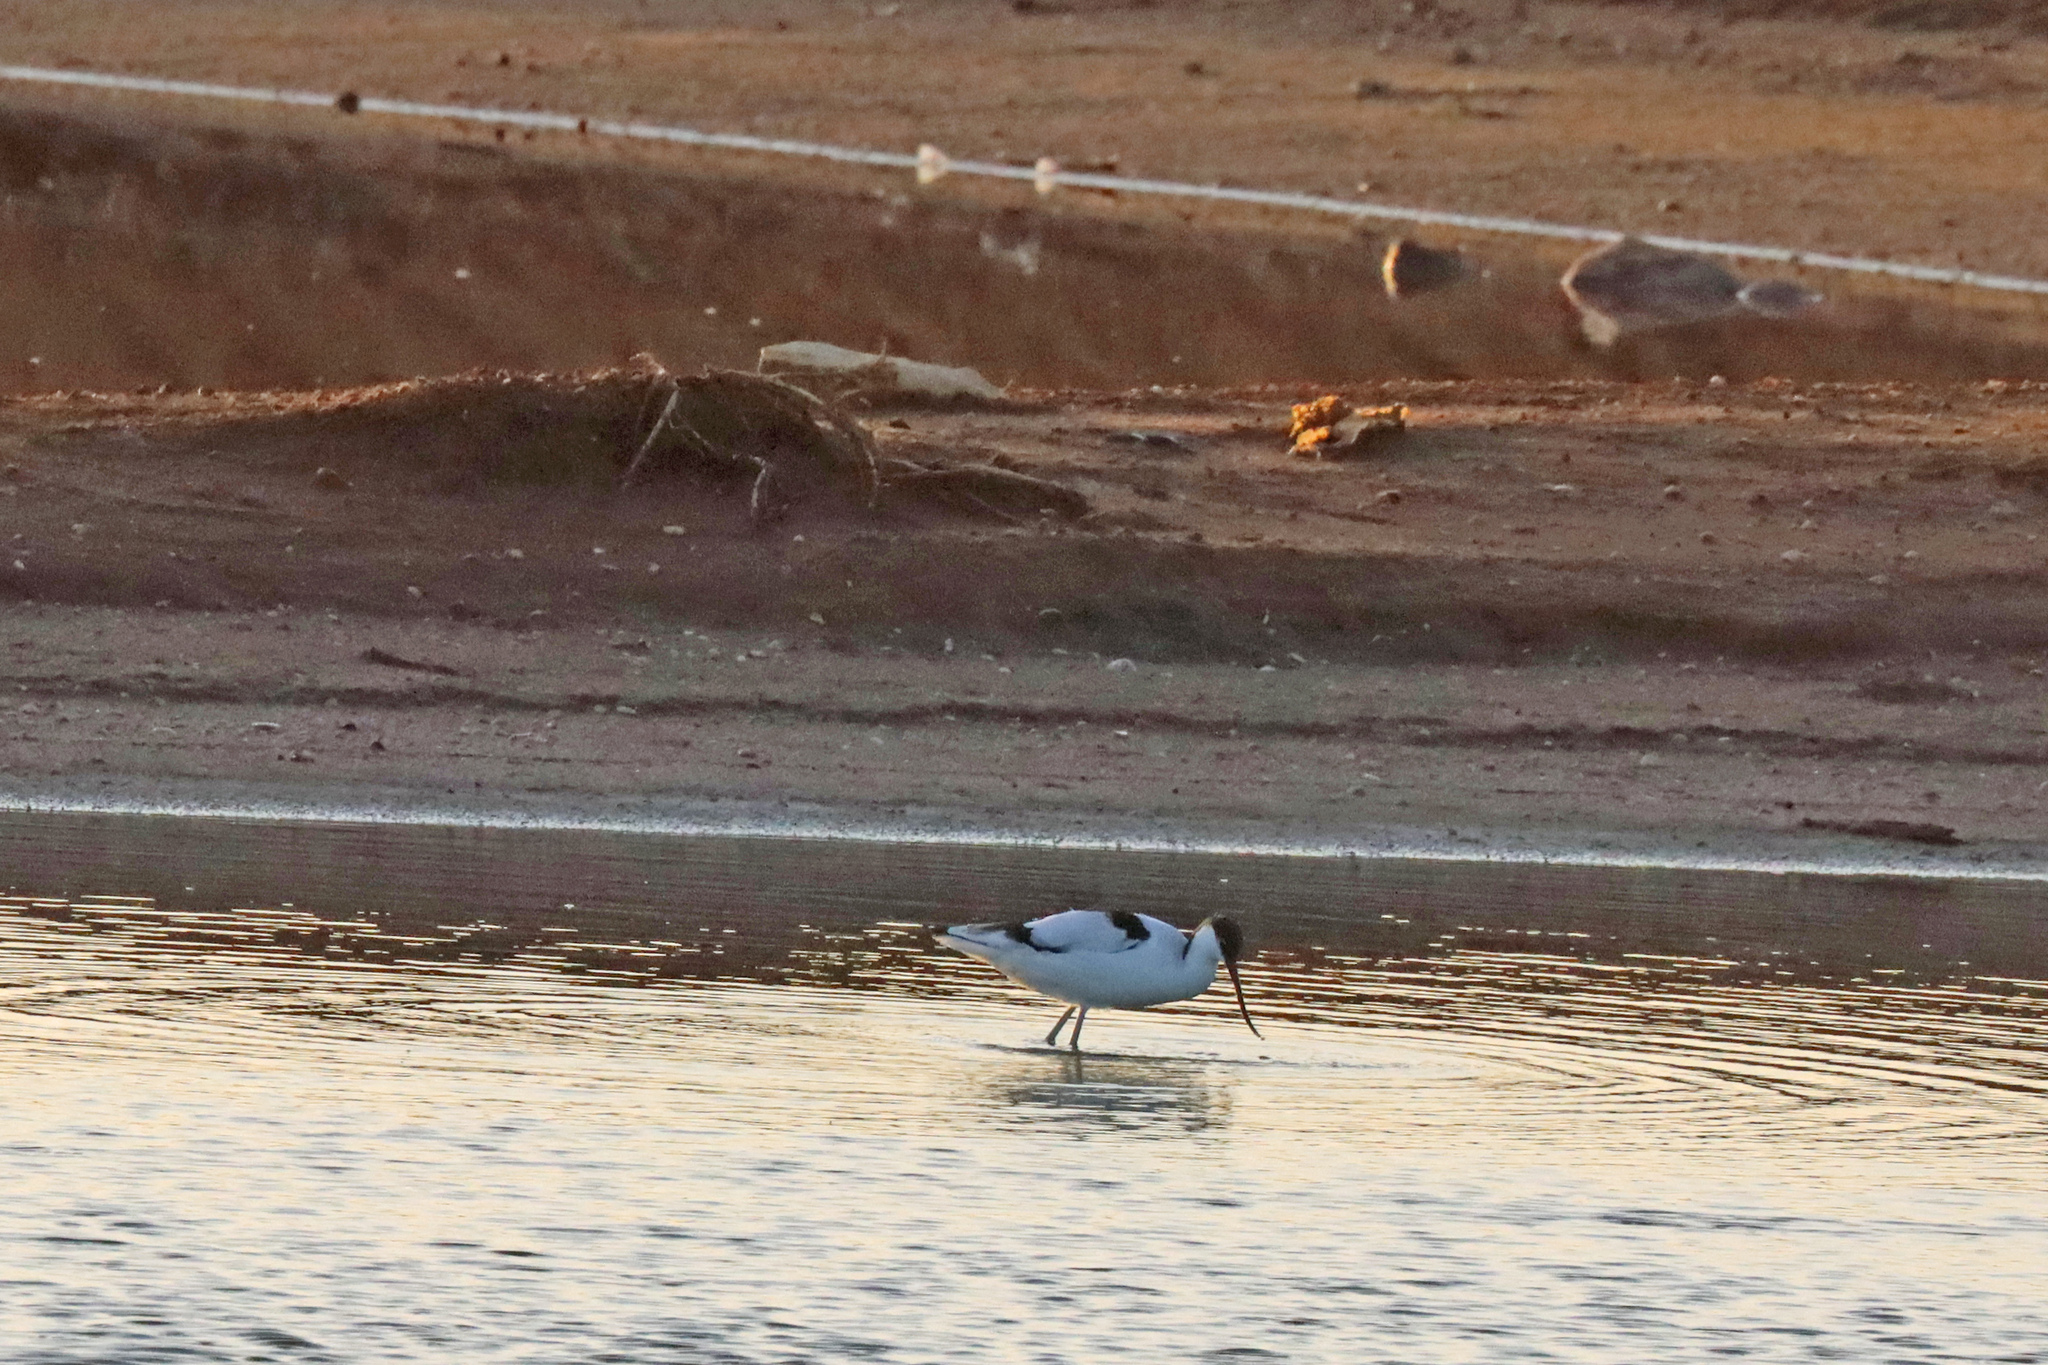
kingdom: Animalia
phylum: Chordata
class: Aves
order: Charadriiformes
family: Recurvirostridae
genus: Recurvirostra
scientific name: Recurvirostra avosetta
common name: Pied avocet
